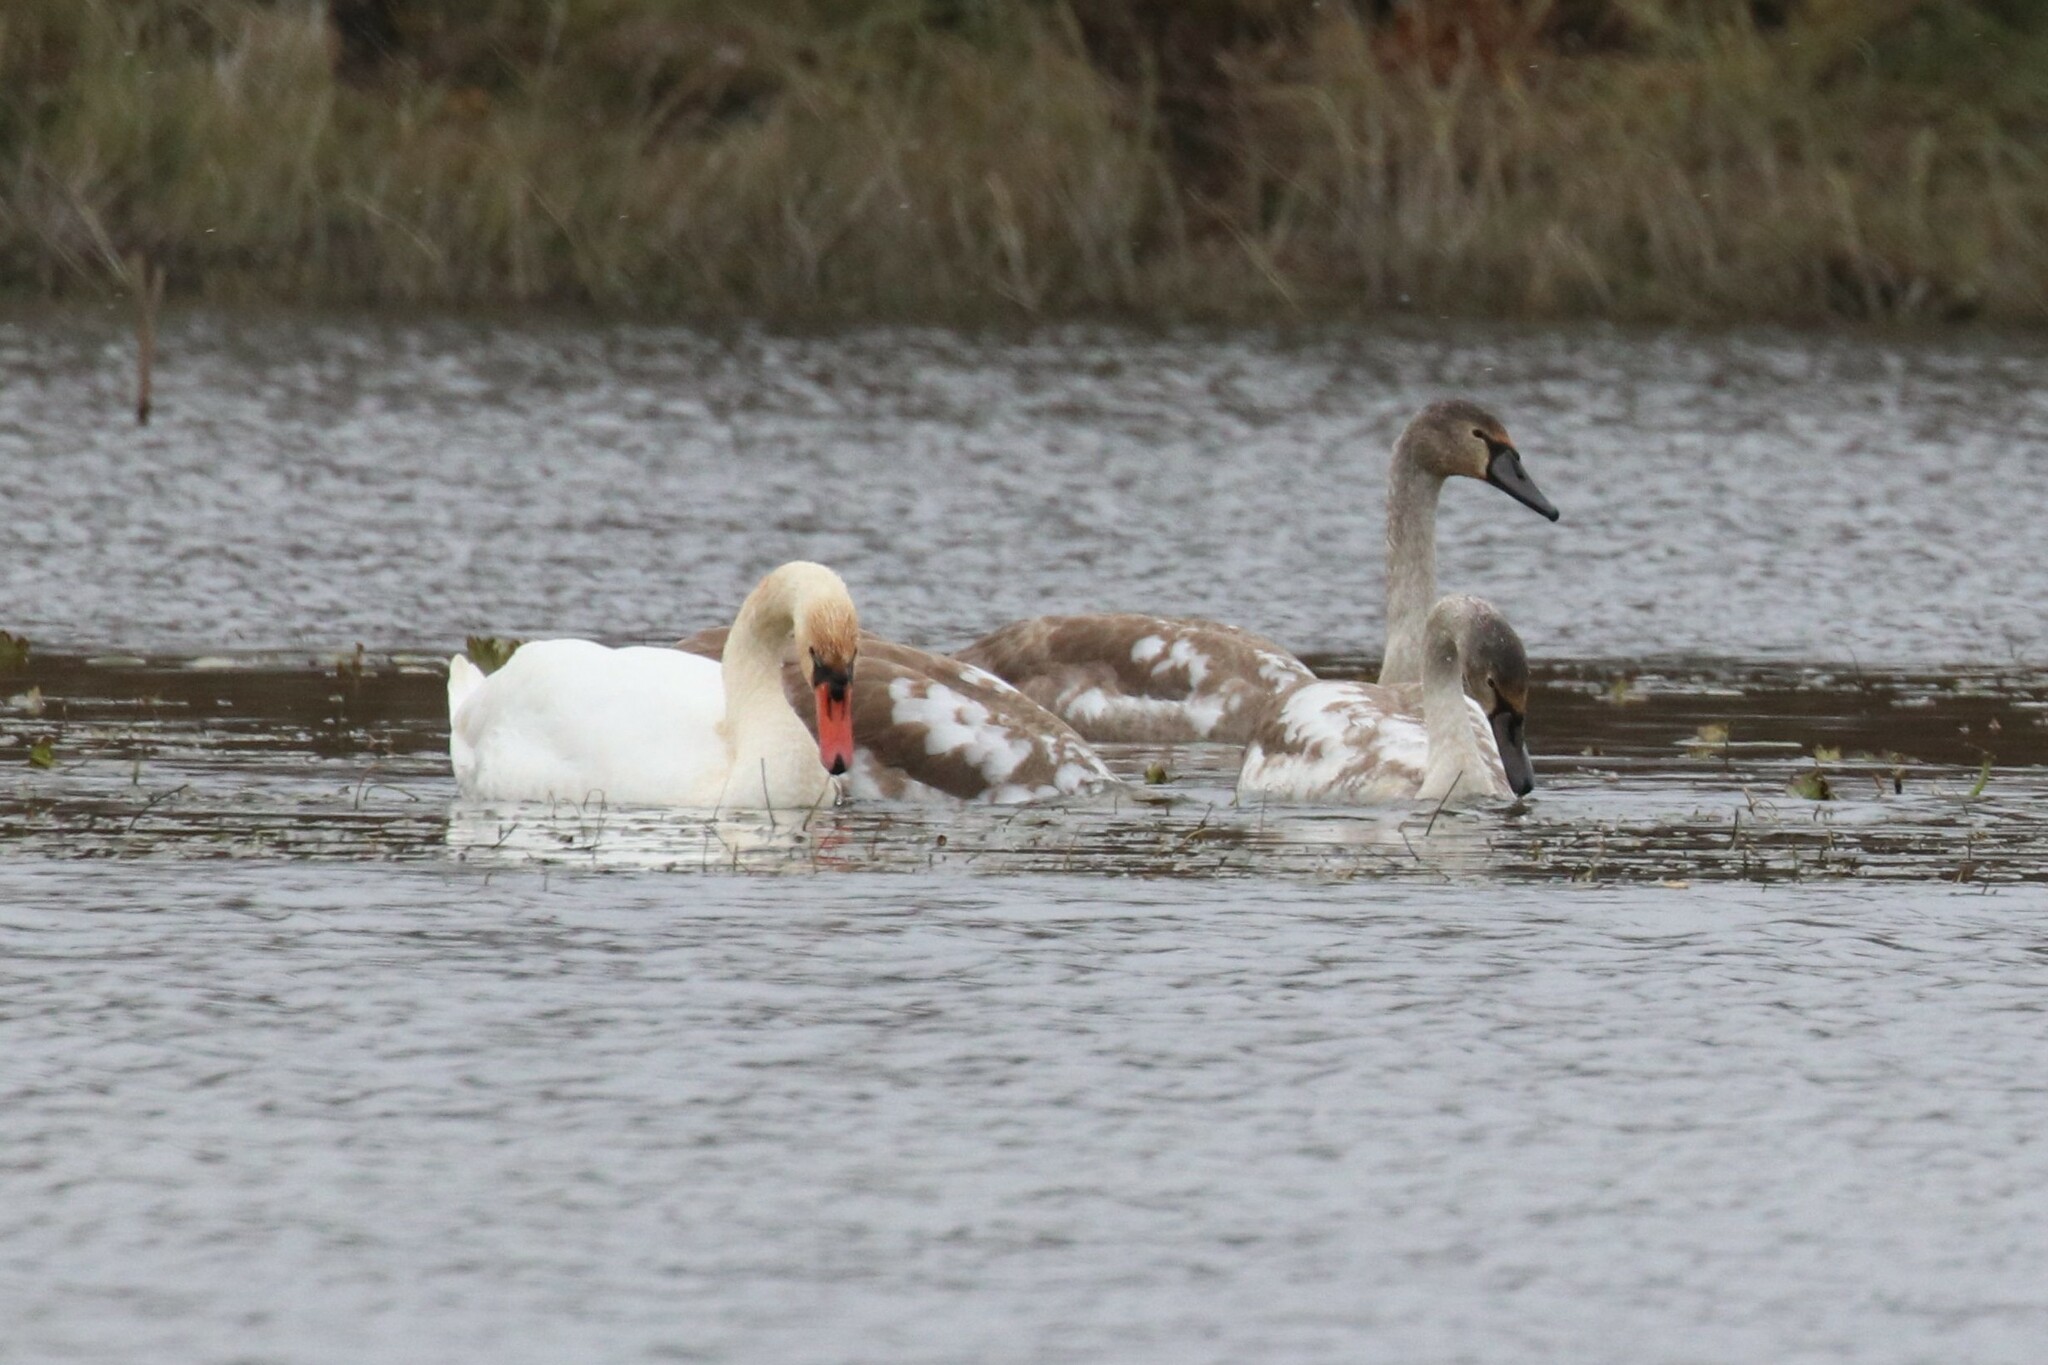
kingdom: Animalia
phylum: Chordata
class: Aves
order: Anseriformes
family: Anatidae
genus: Cygnus
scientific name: Cygnus olor
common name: Mute swan
